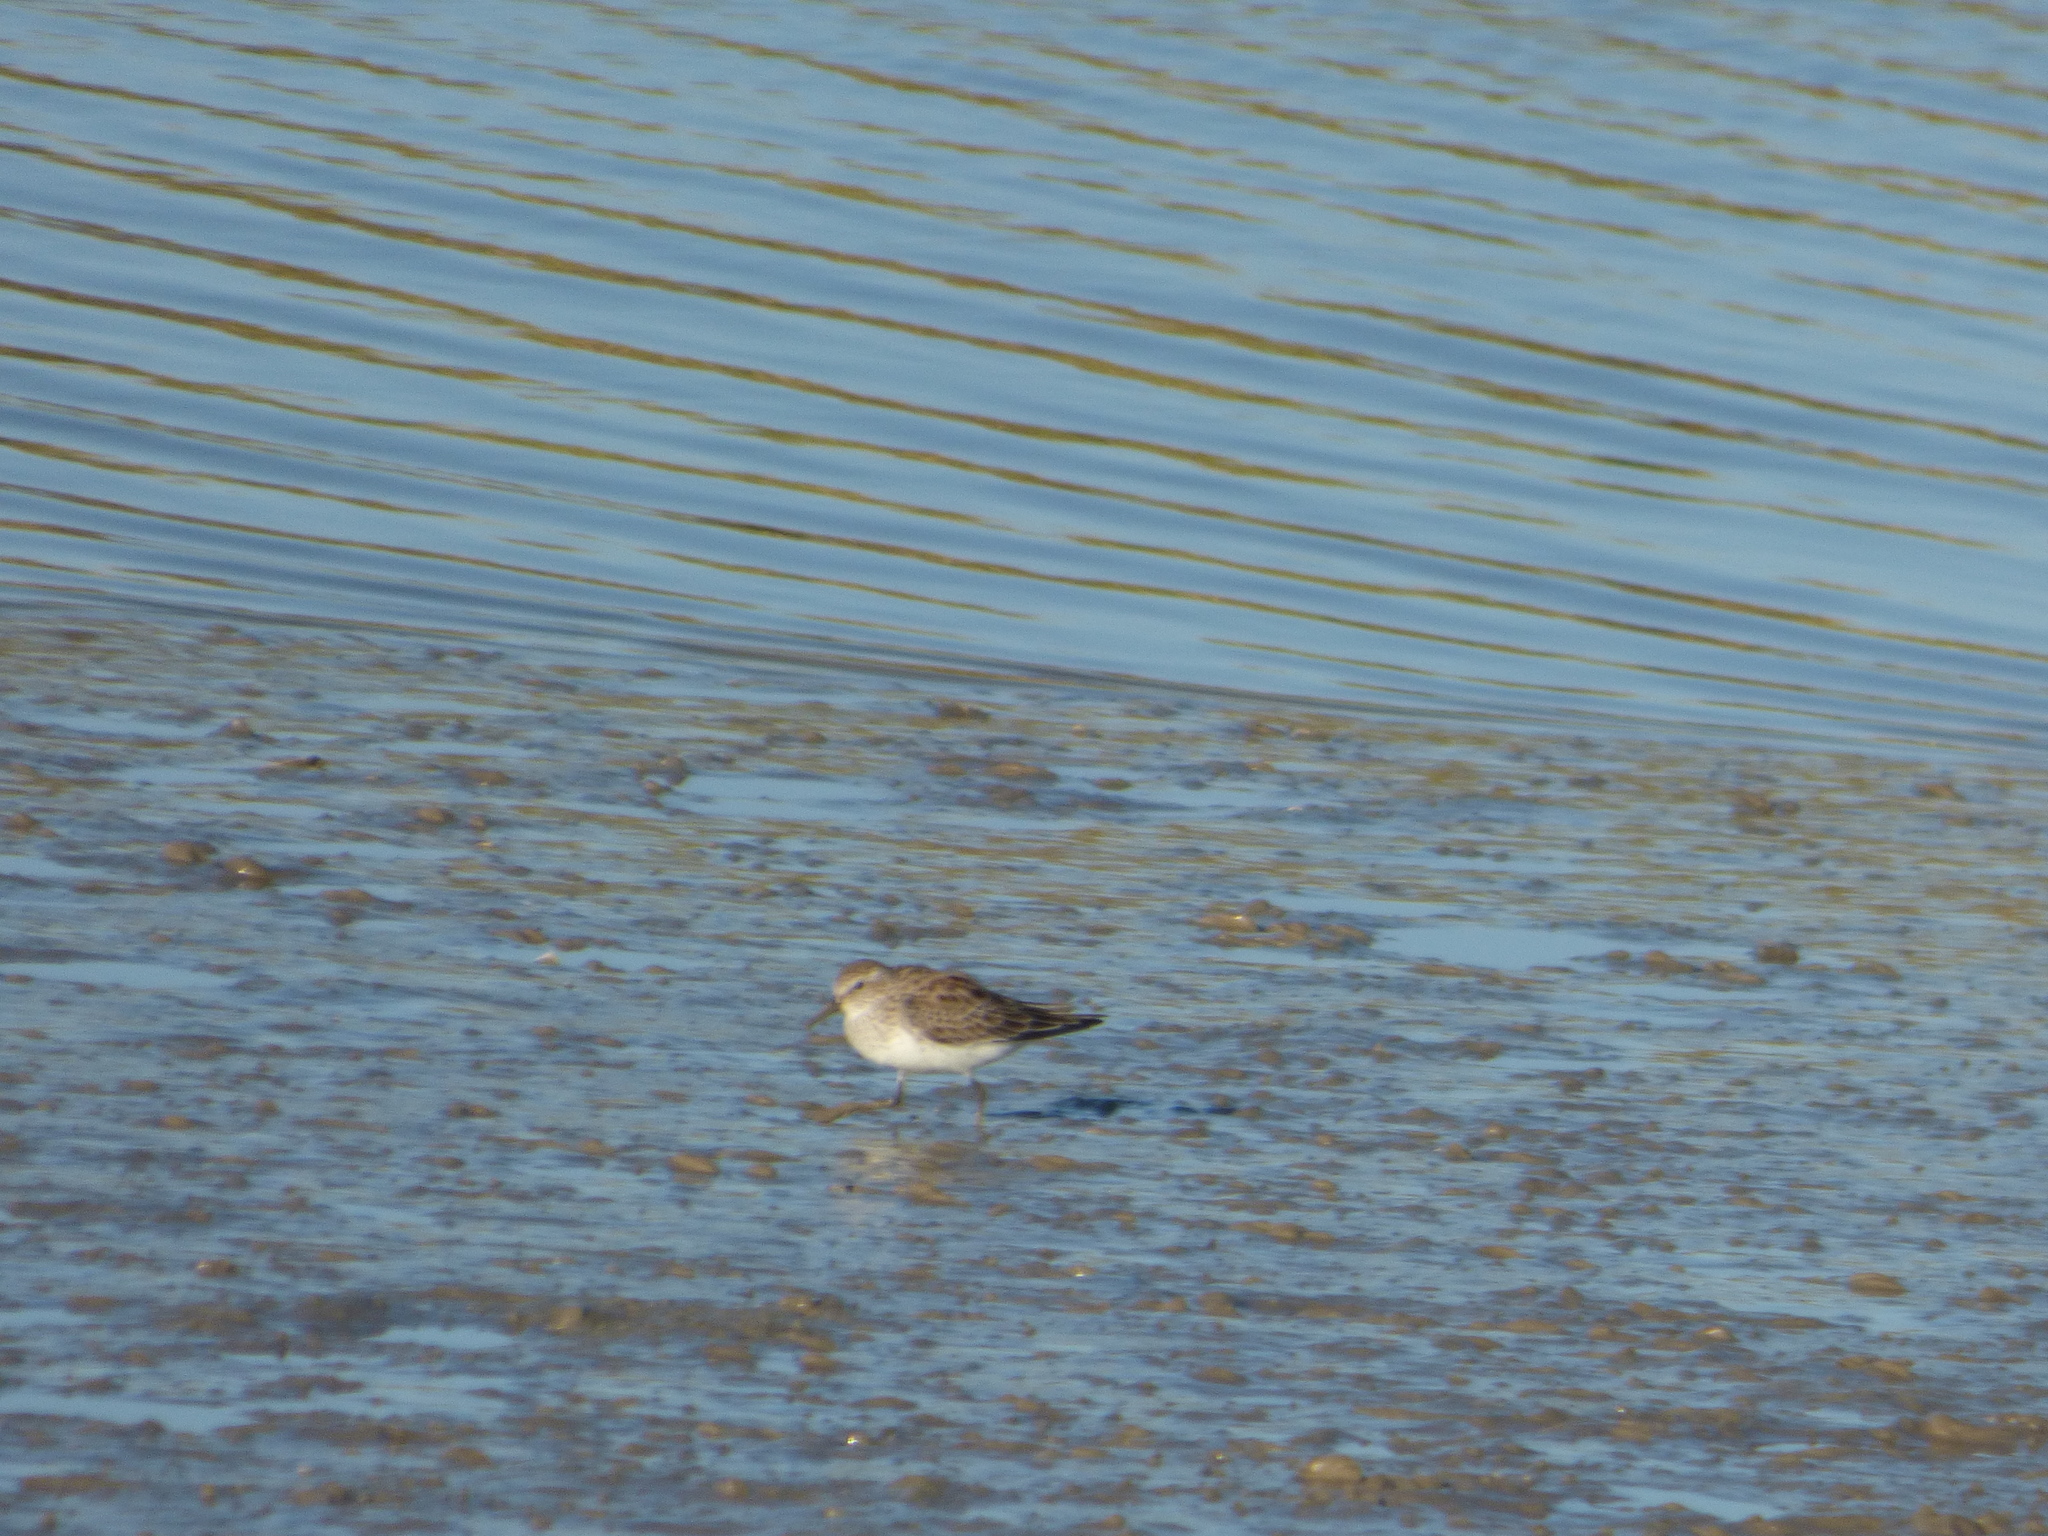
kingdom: Animalia
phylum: Chordata
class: Aves
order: Charadriiformes
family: Scolopacidae
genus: Calidris
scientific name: Calidris fuscicollis
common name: White-rumped sandpiper
